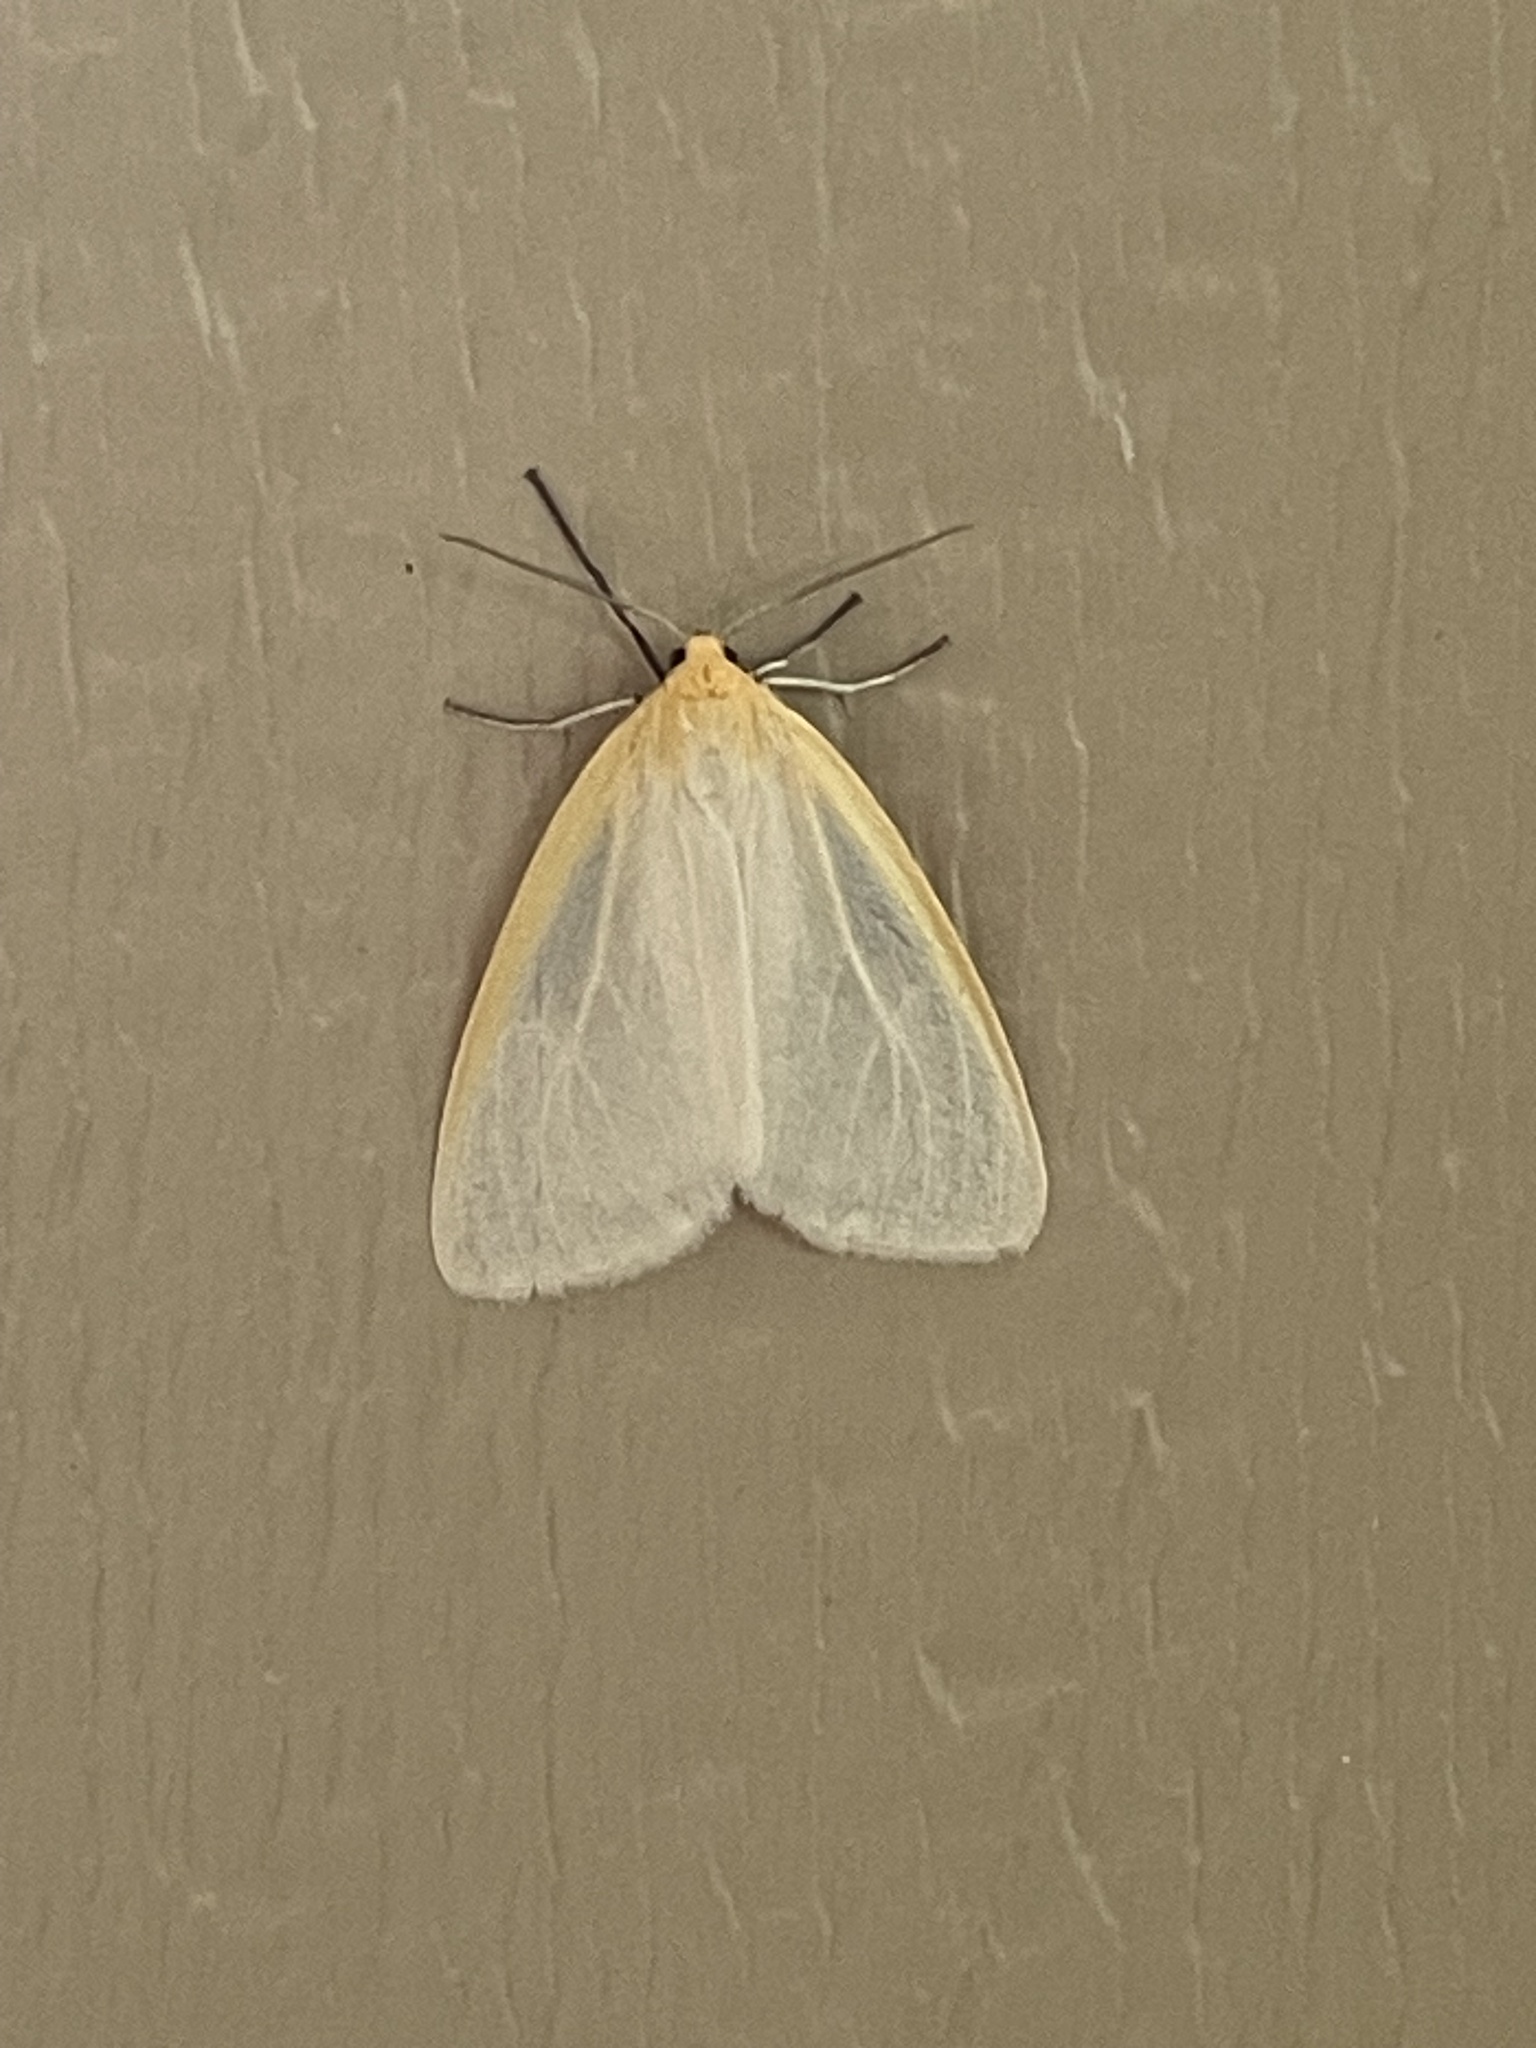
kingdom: Animalia
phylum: Arthropoda
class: Insecta
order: Lepidoptera
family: Erebidae
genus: Cycnia
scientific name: Cycnia tenera
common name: Delicate cycnia moth
